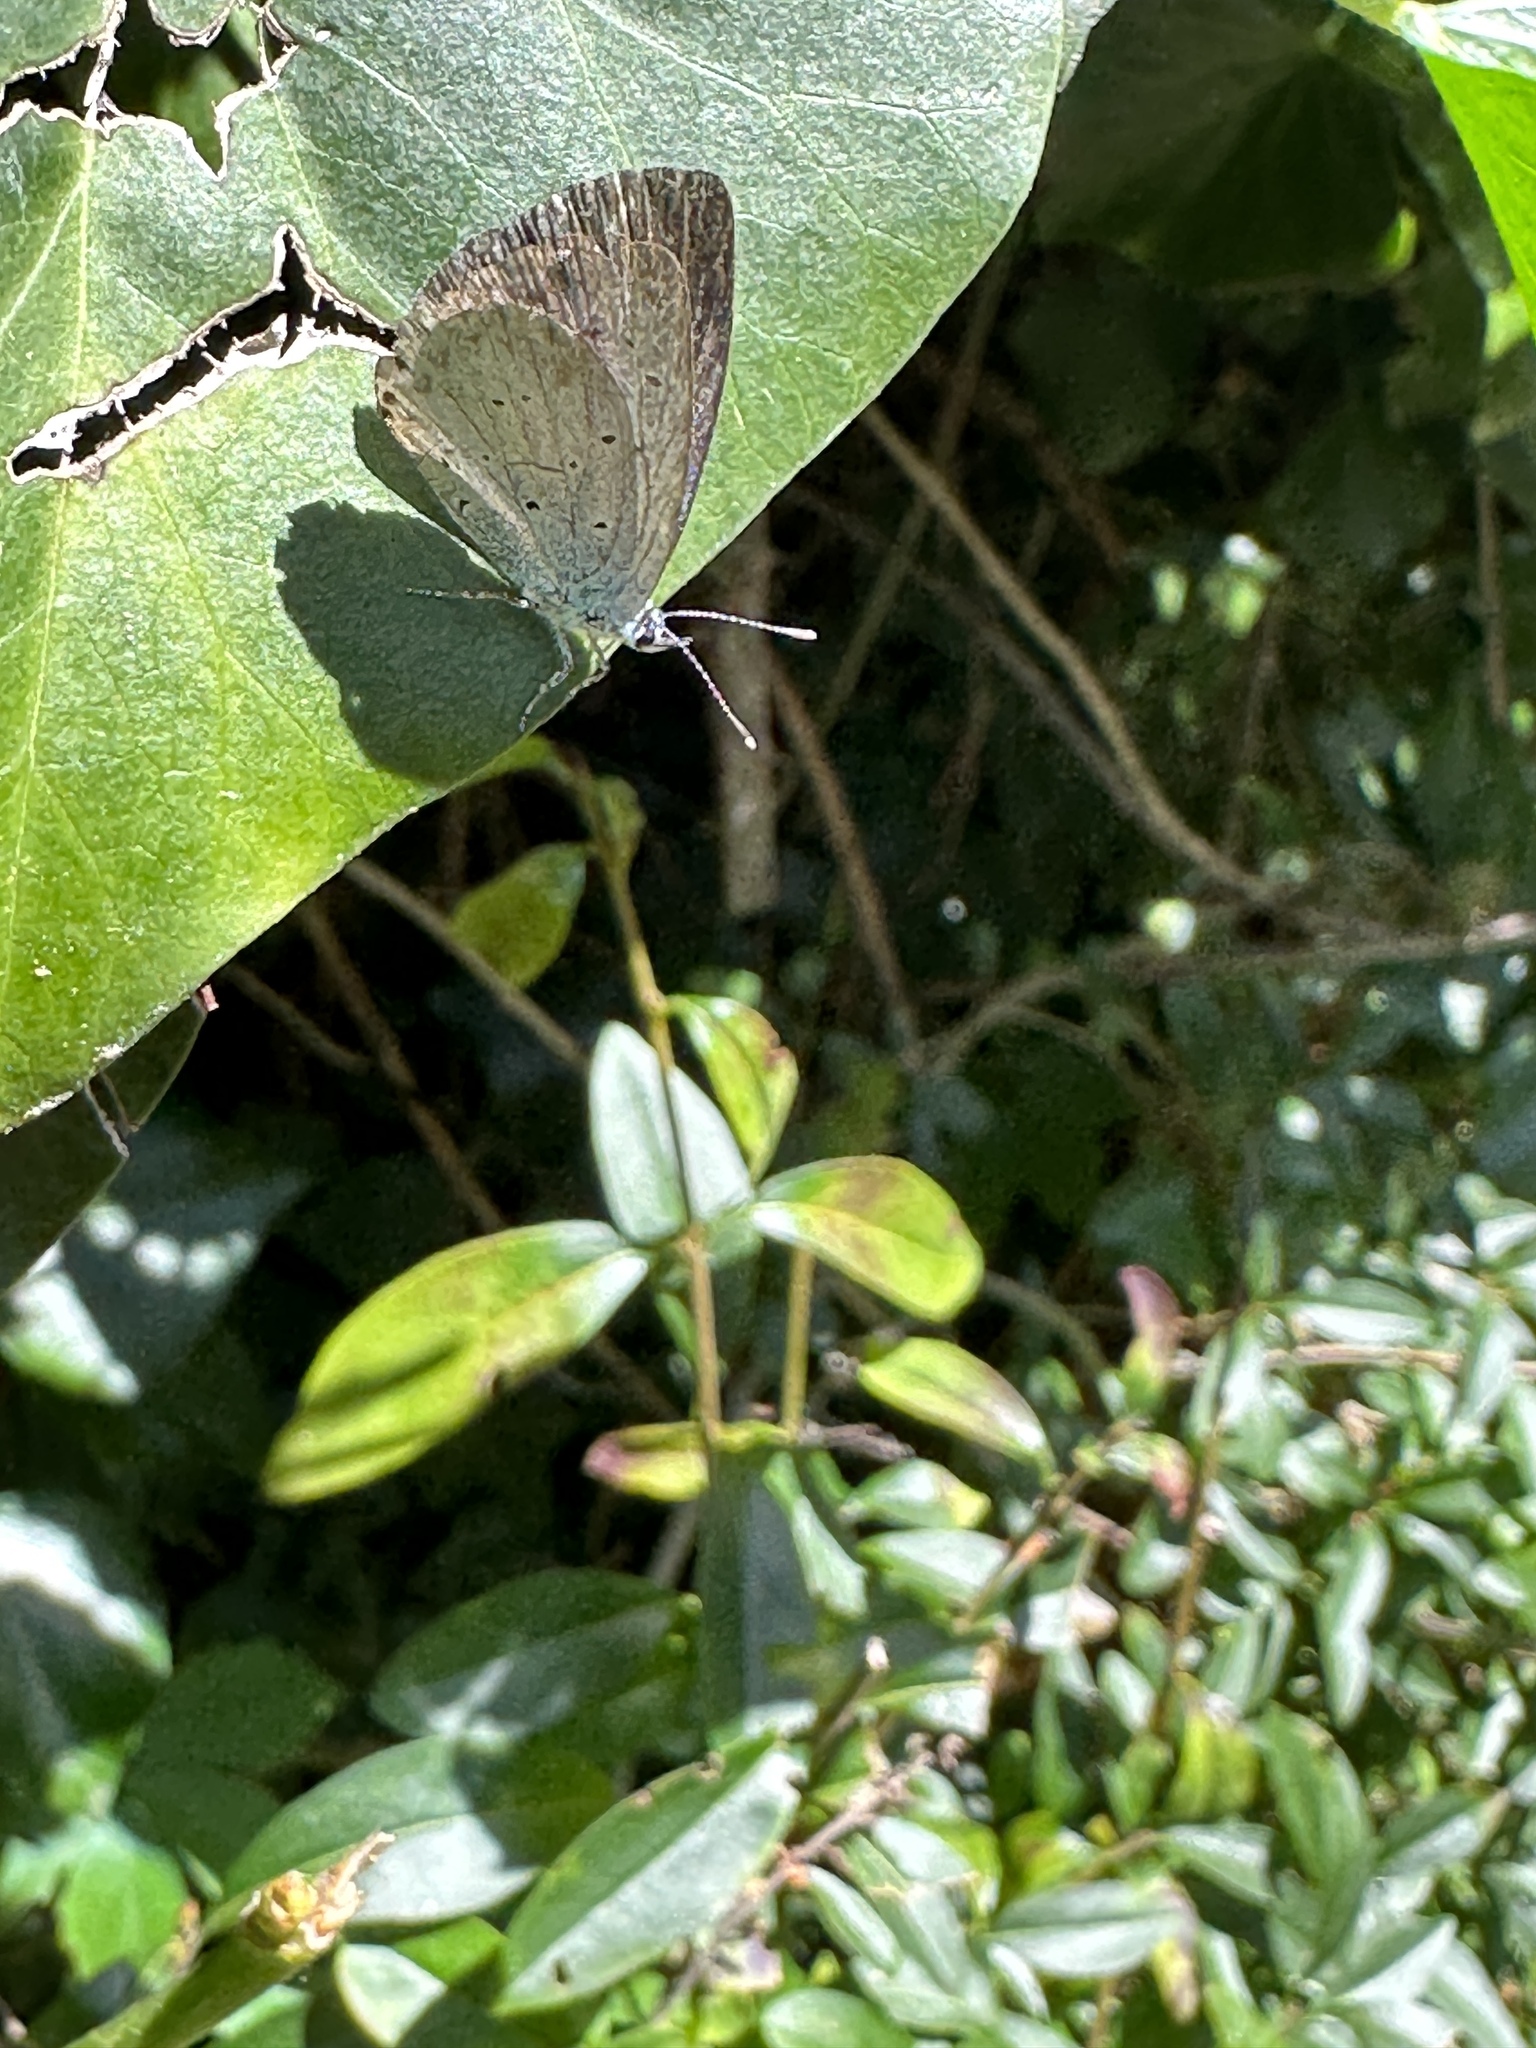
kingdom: Animalia
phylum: Arthropoda
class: Insecta
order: Lepidoptera
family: Lycaenidae
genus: Celastrina
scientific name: Celastrina argiolus
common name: Holly blue
